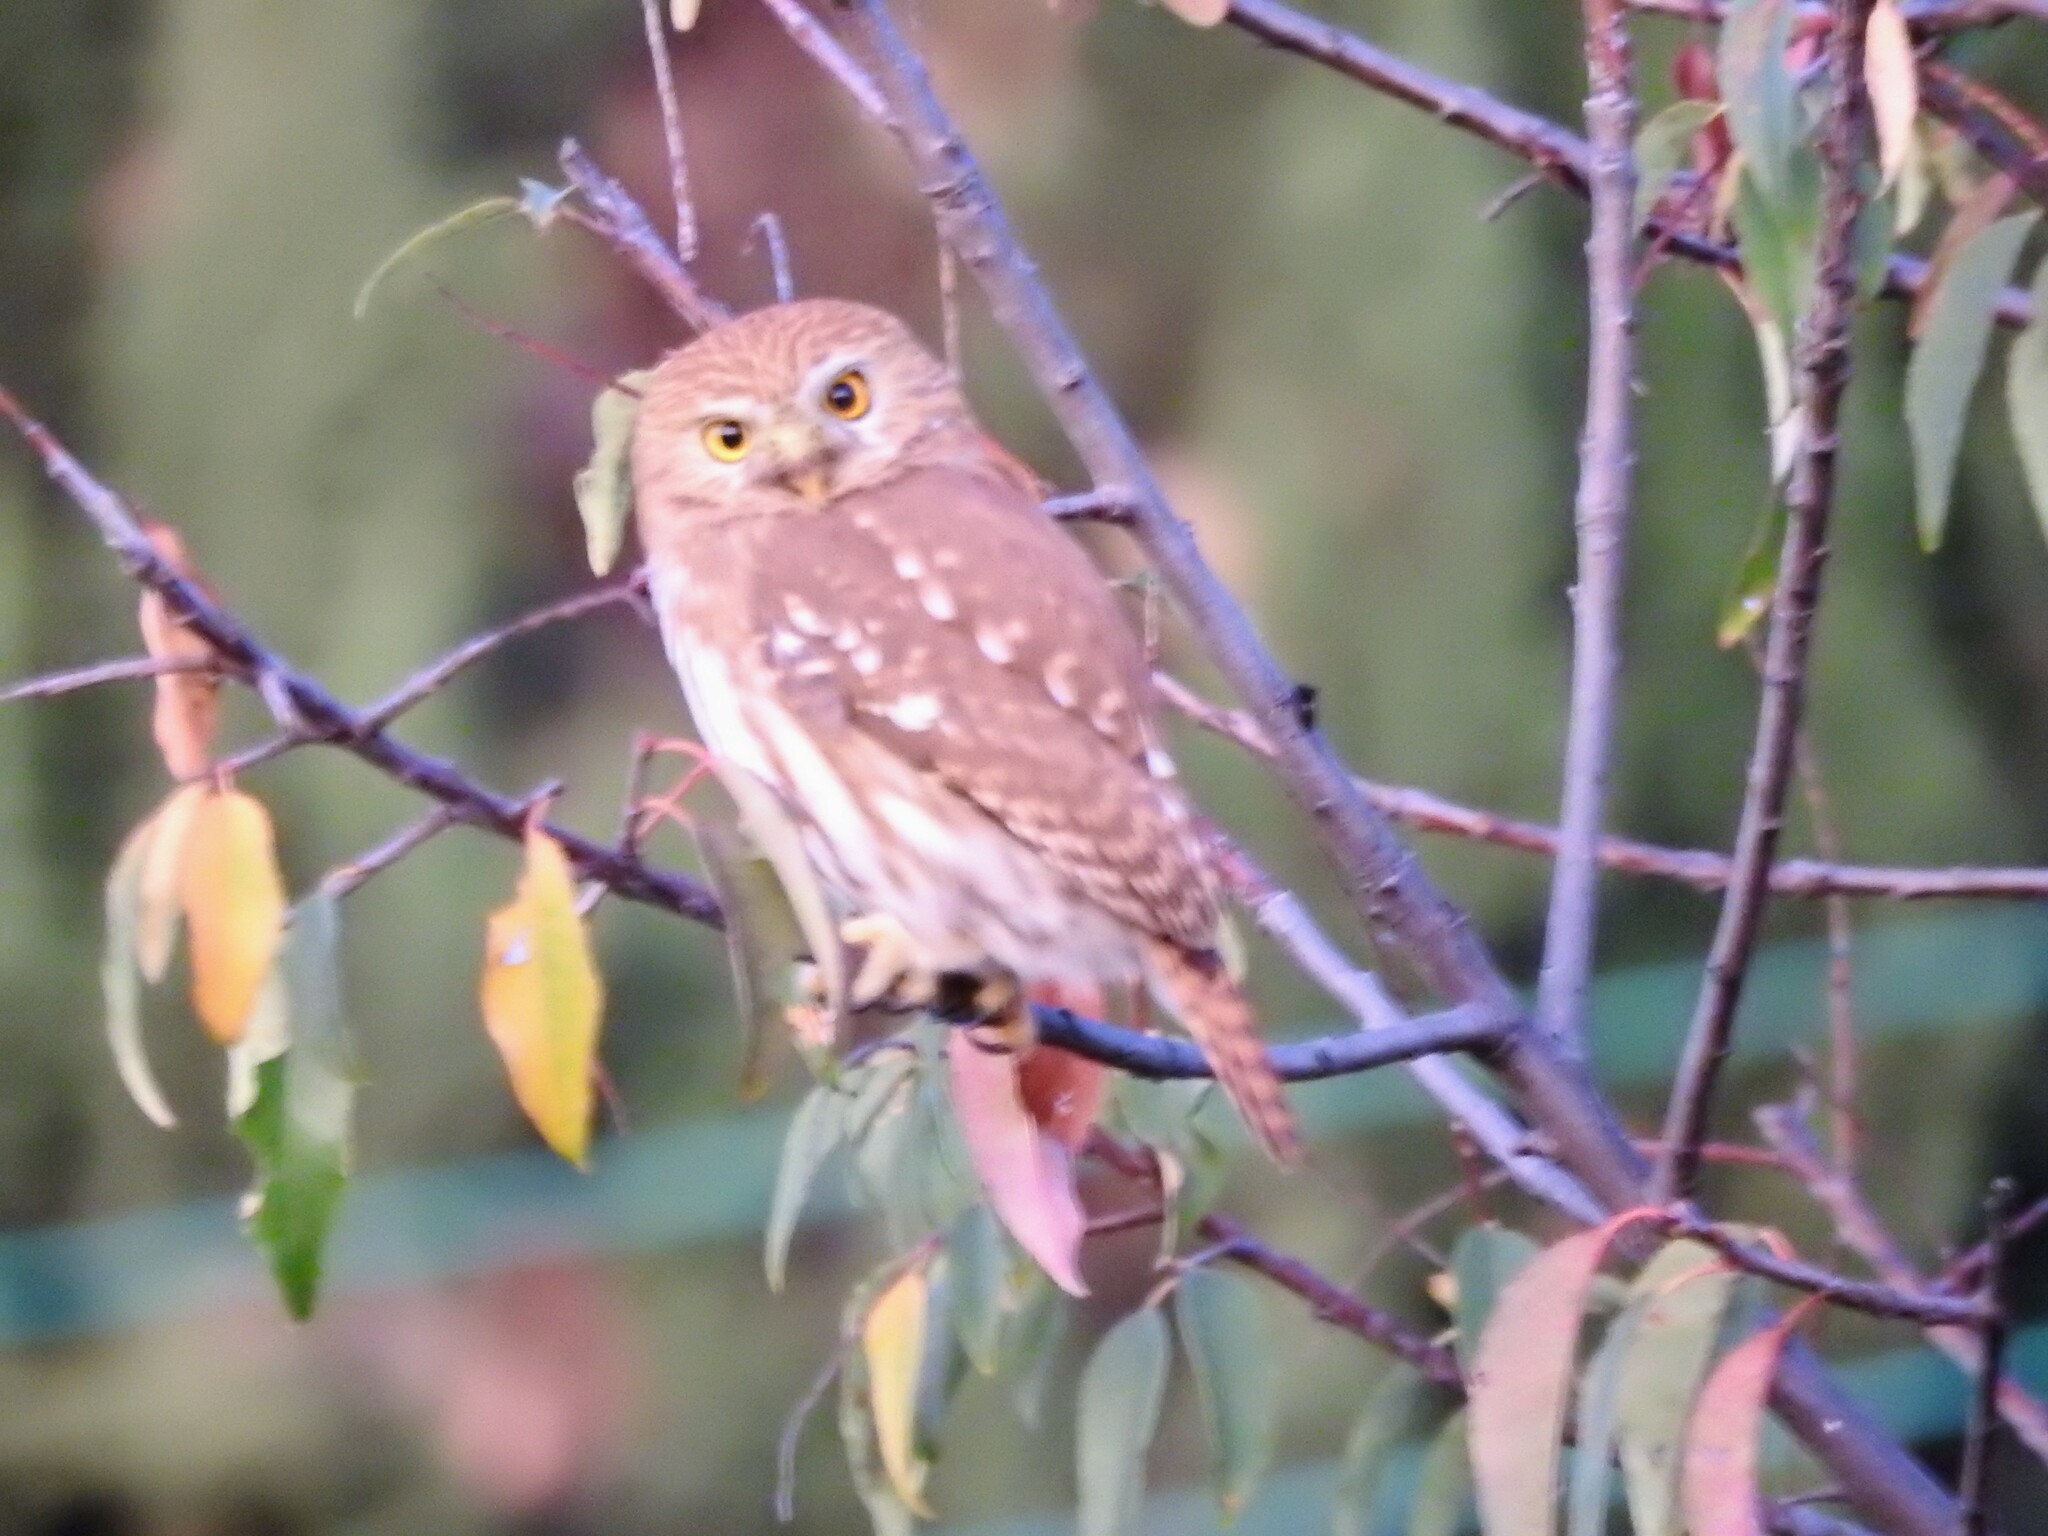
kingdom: Animalia
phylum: Chordata
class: Aves
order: Strigiformes
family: Strigidae
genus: Glaucidium
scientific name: Glaucidium brasilianum
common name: Ferruginous pygmy-owl
